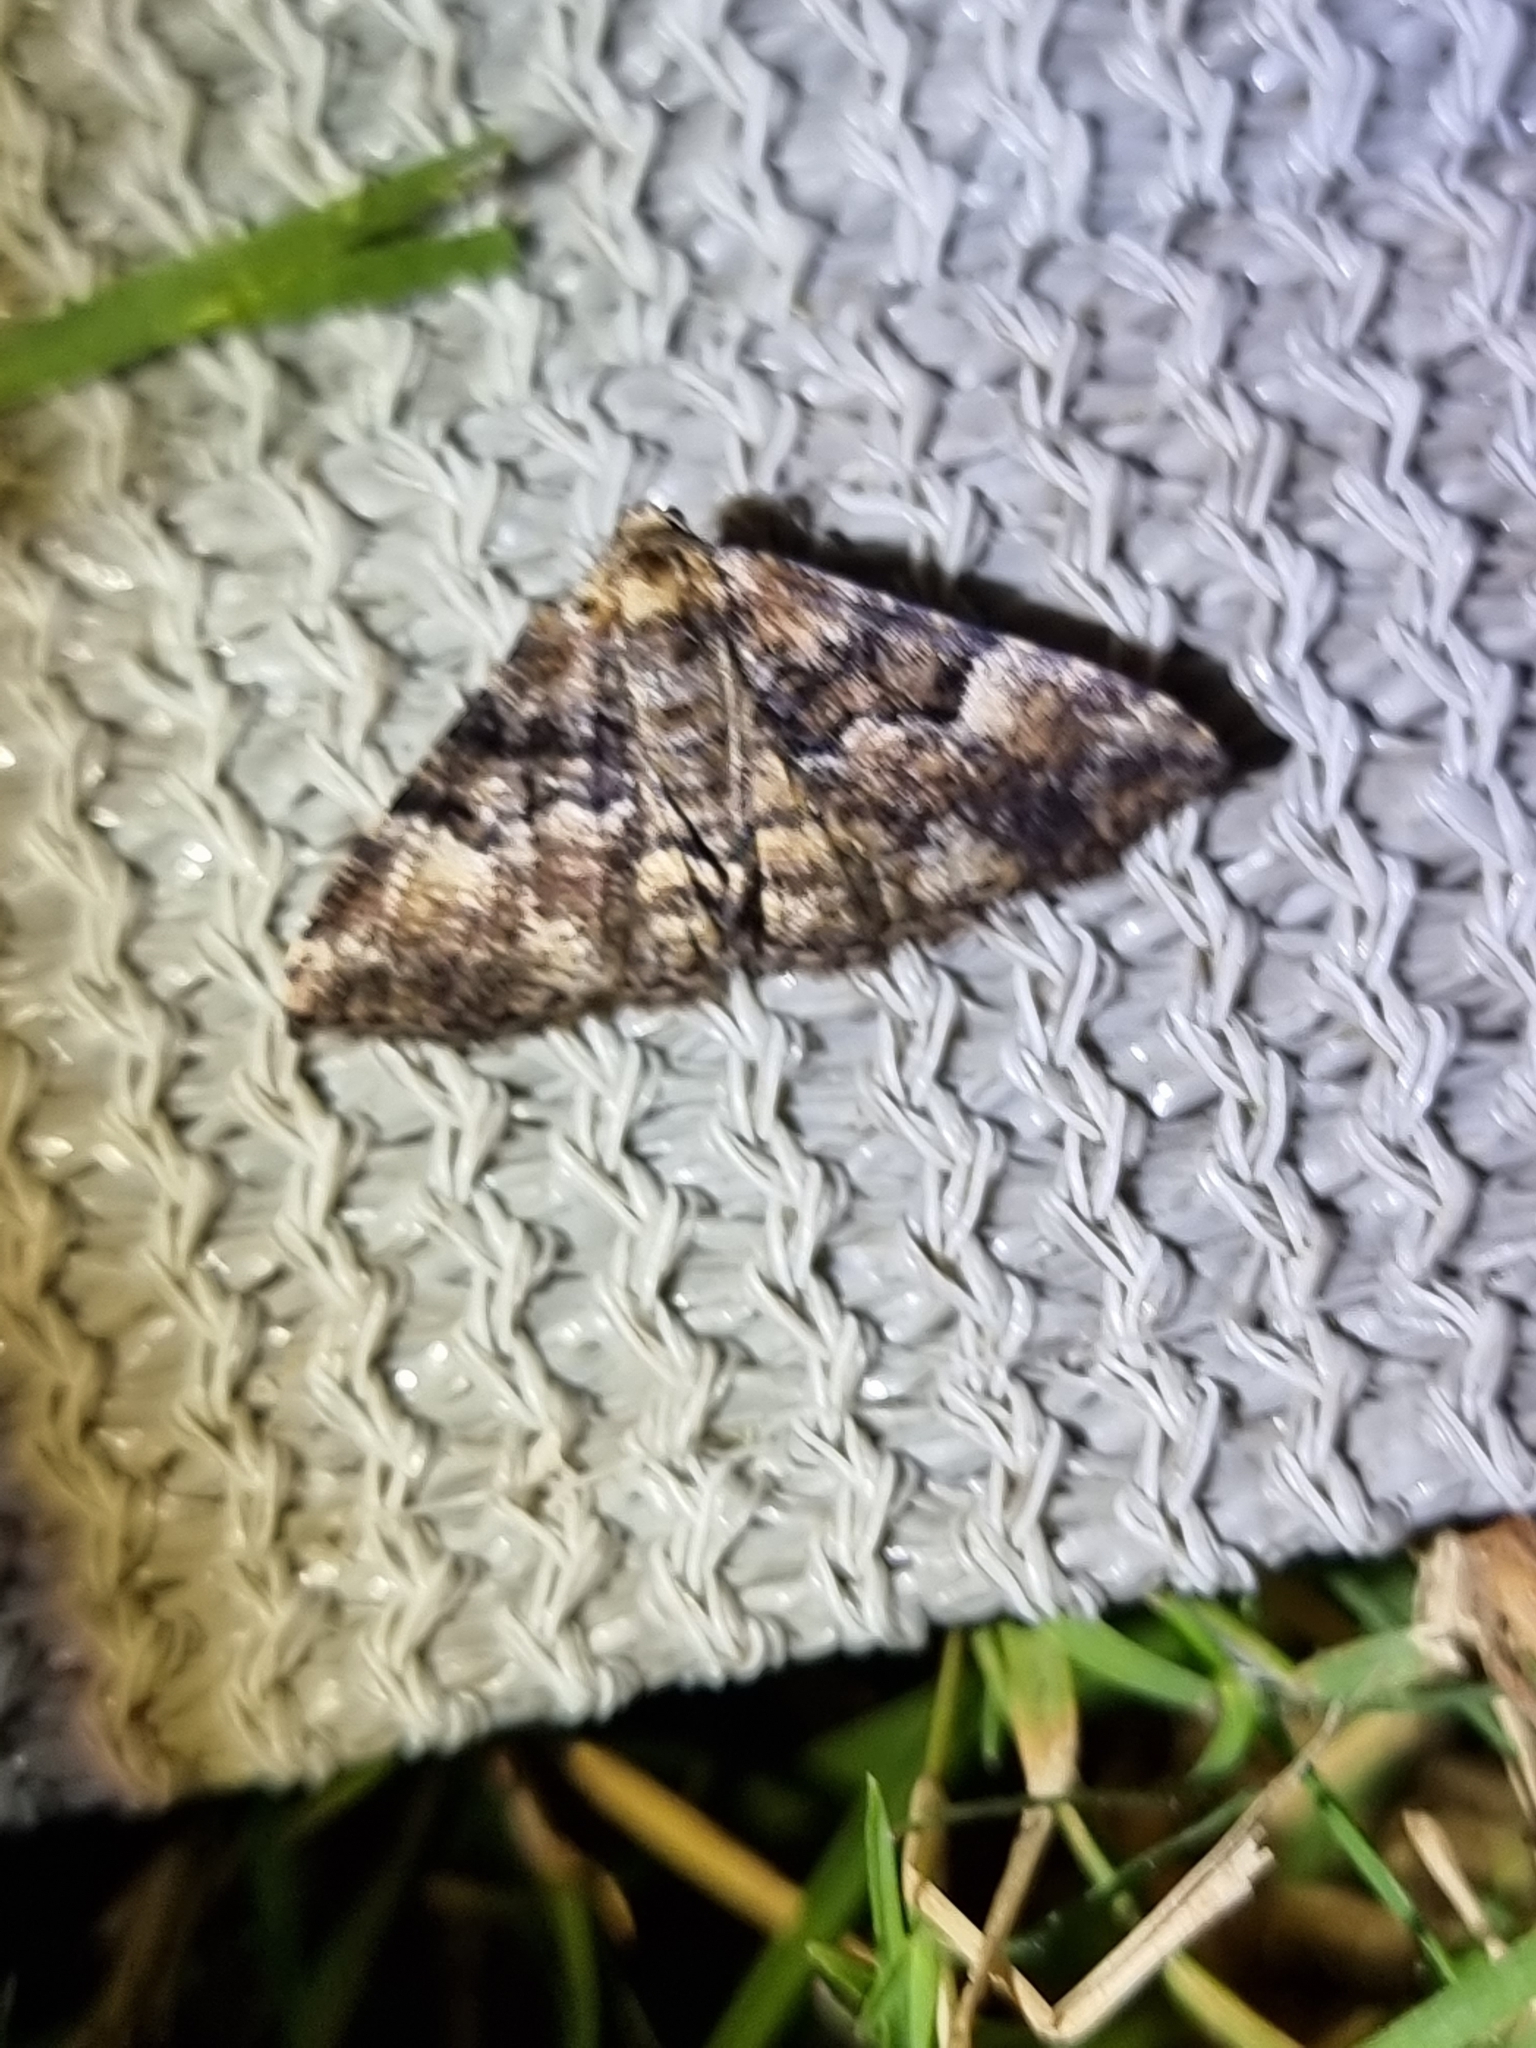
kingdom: Animalia
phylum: Arthropoda
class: Insecta
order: Lepidoptera
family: Geometridae
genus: Aporoctena
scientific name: Aporoctena scierodes
